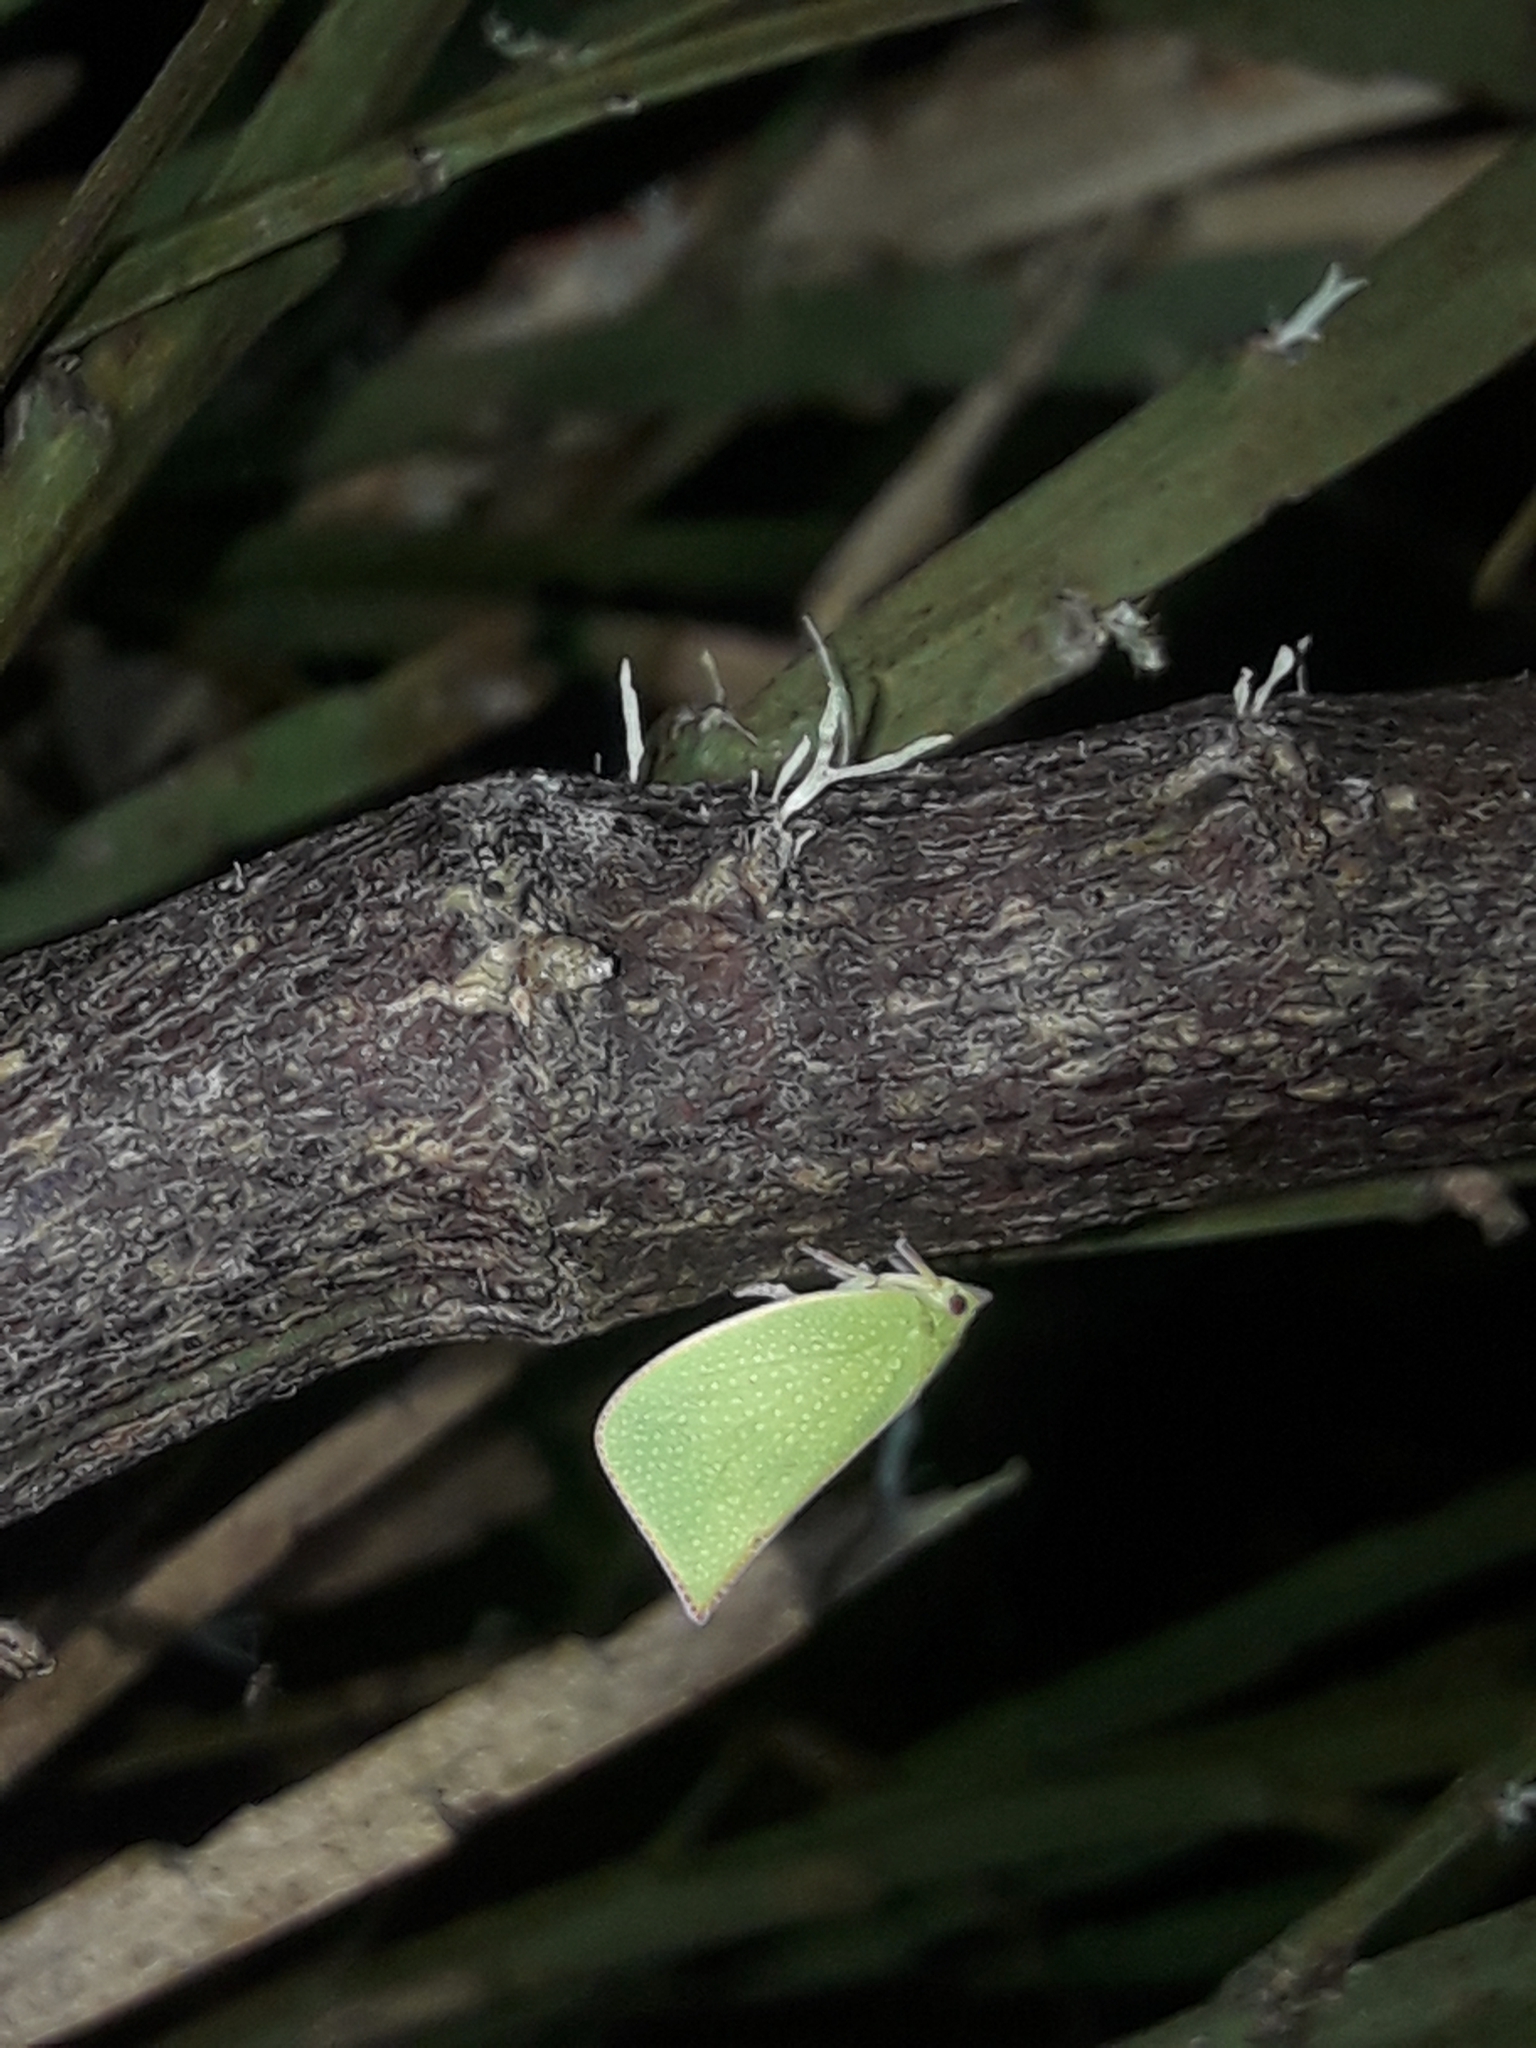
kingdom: Animalia
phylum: Arthropoda
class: Insecta
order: Hemiptera
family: Flatidae
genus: Siphanta
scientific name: Siphanta acuta
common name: Torpedo bug
